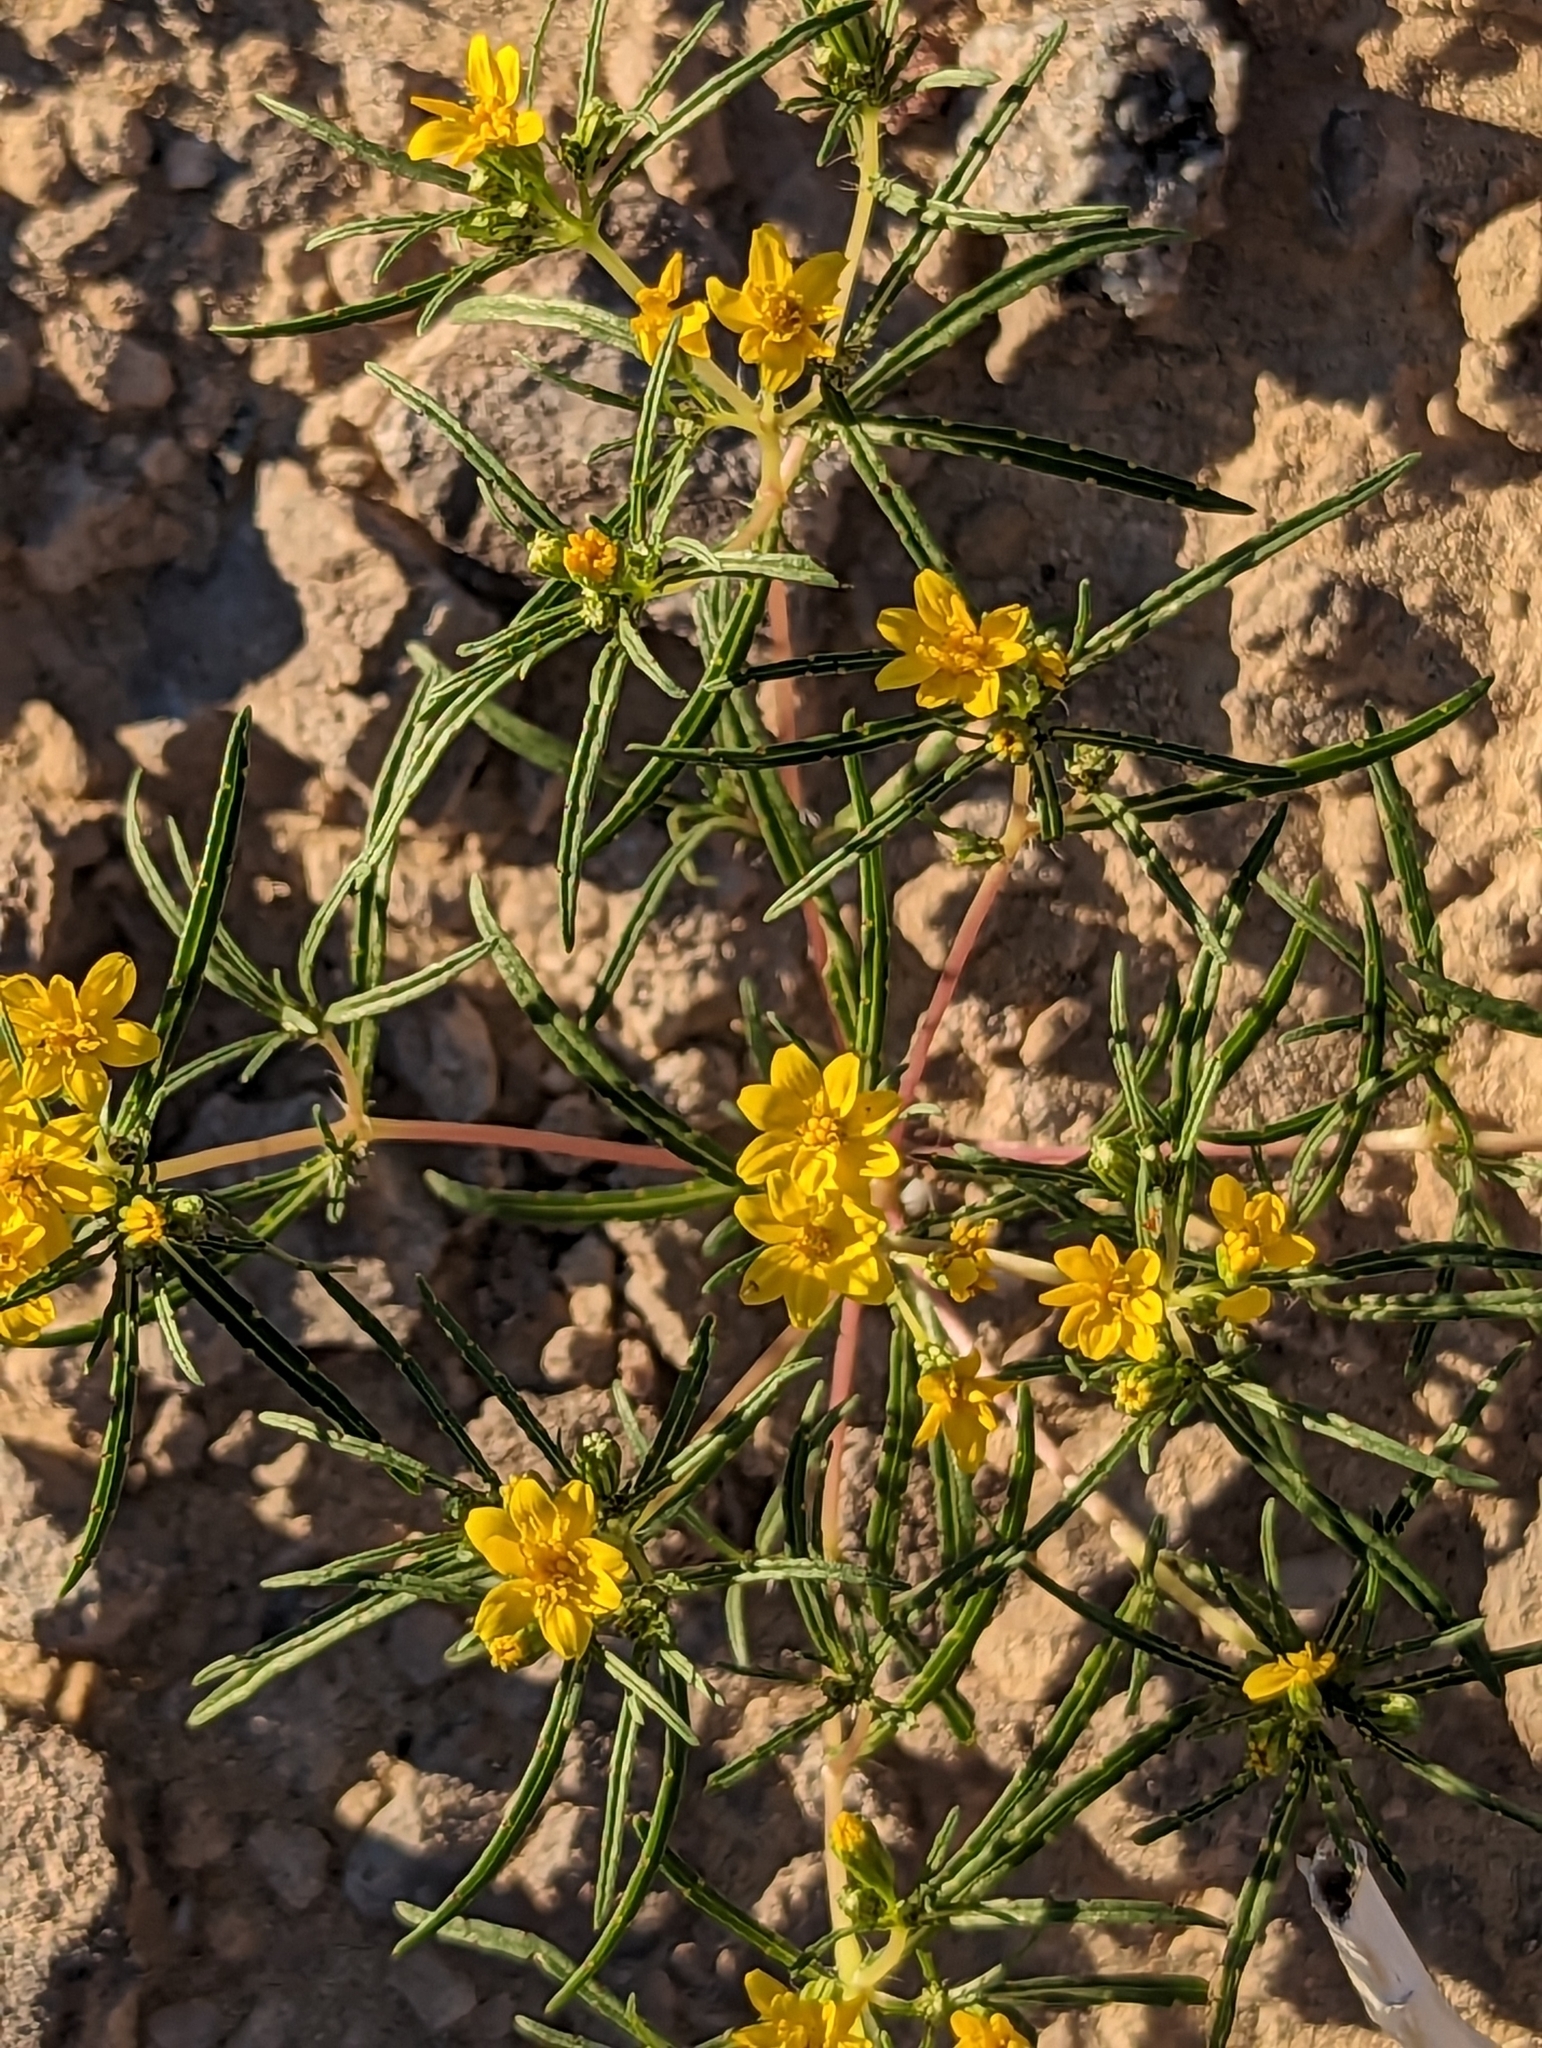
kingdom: Plantae
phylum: Tracheophyta
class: Magnoliopsida
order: Asterales
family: Asteraceae
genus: Pectis
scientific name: Pectis papposa
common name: Many-bristle chinchweed
